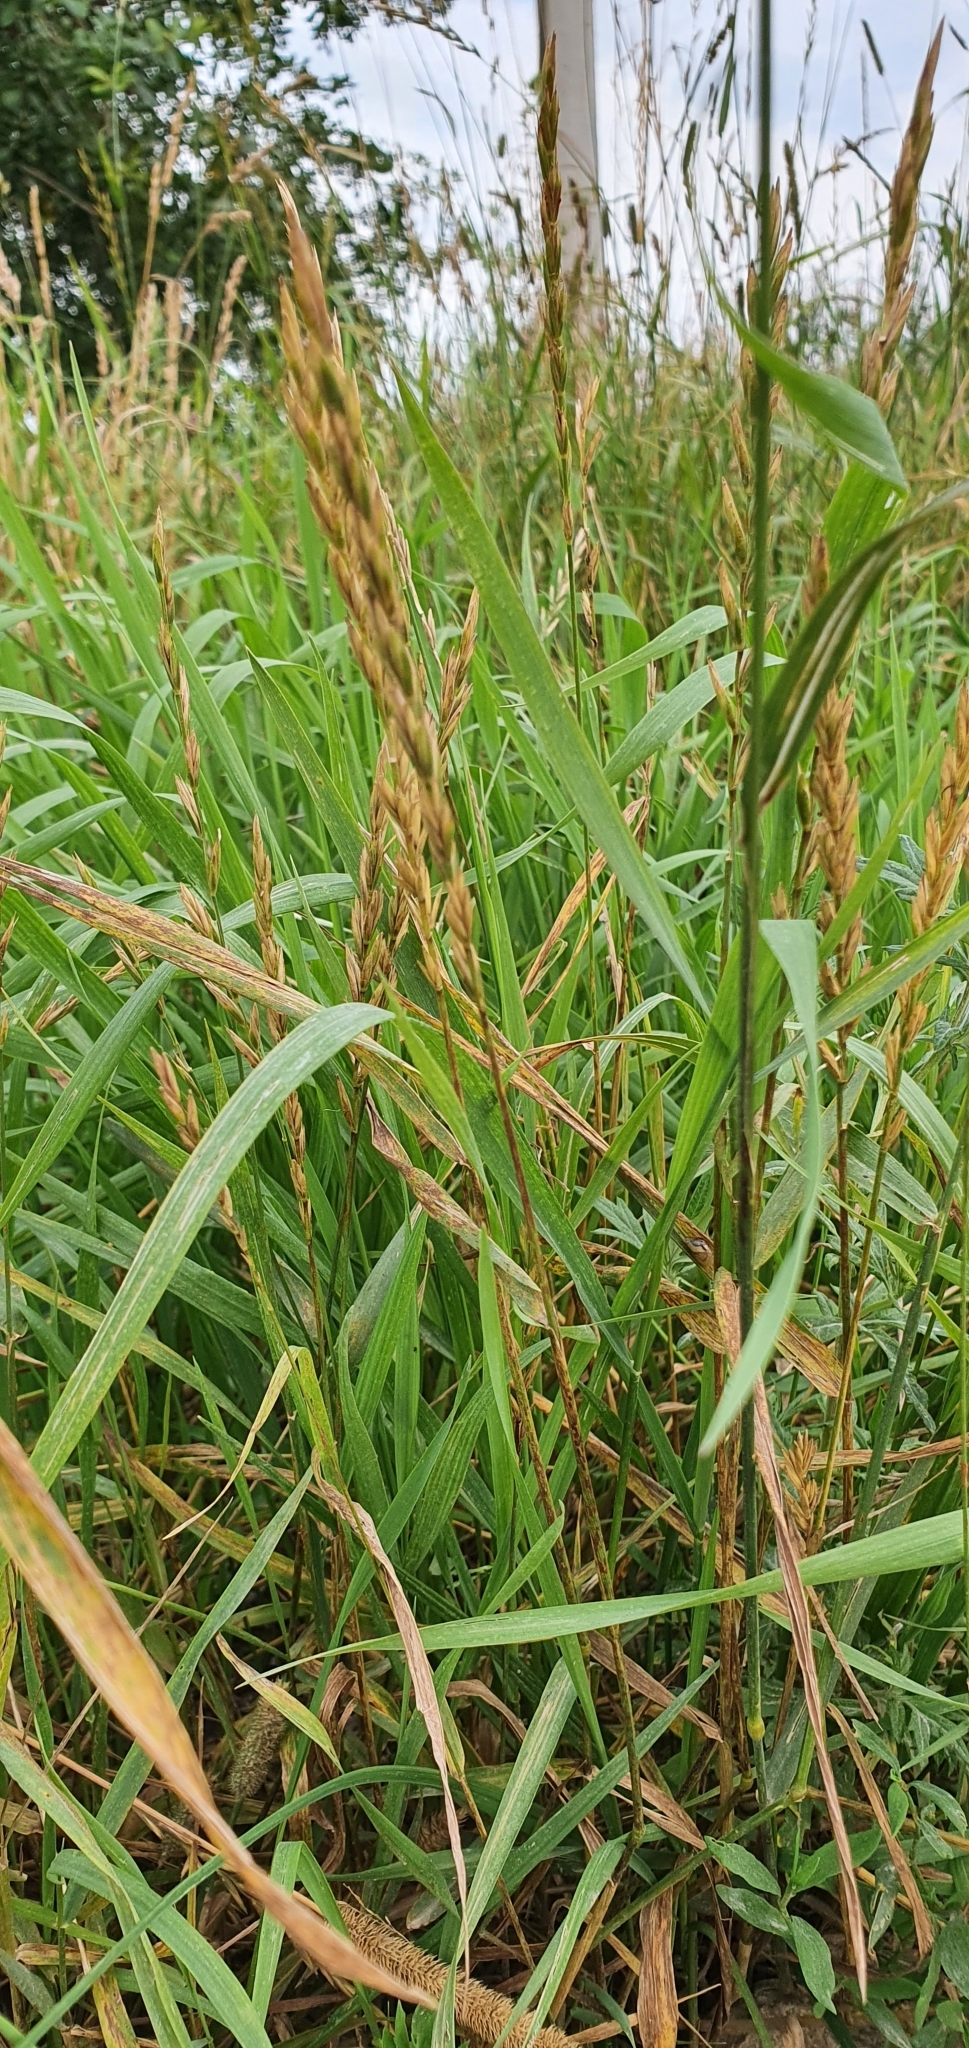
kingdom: Plantae
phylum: Tracheophyta
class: Liliopsida
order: Poales
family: Poaceae
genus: Elymus
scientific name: Elymus repens
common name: Quackgrass
